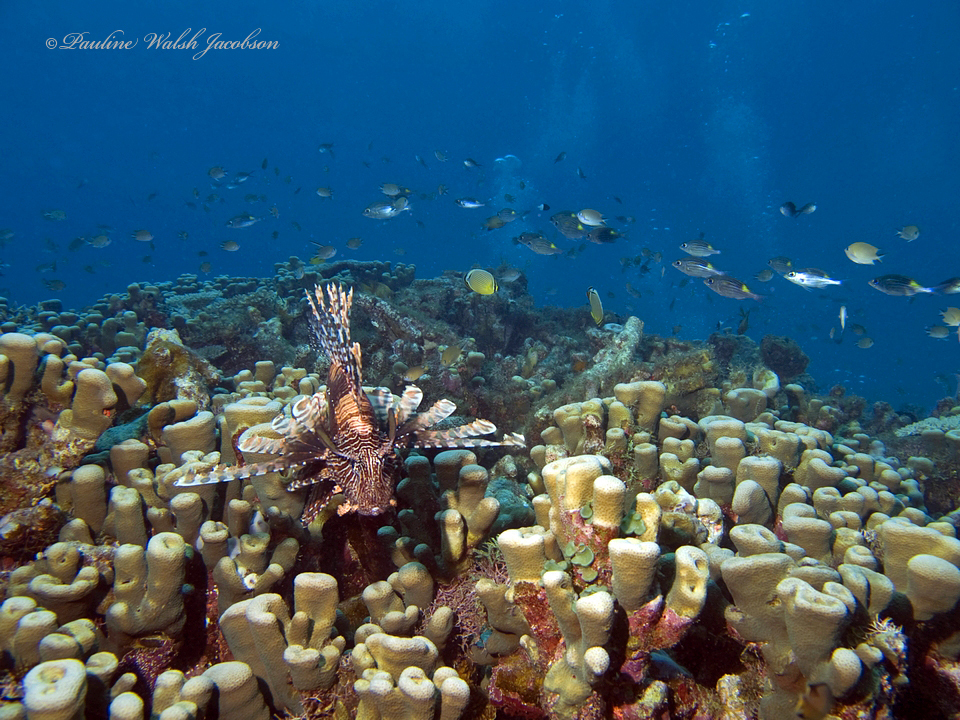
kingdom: Animalia
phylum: Chordata
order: Scorpaeniformes
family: Scorpaenidae
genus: Pterois
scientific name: Pterois volitans
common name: Lionfish
